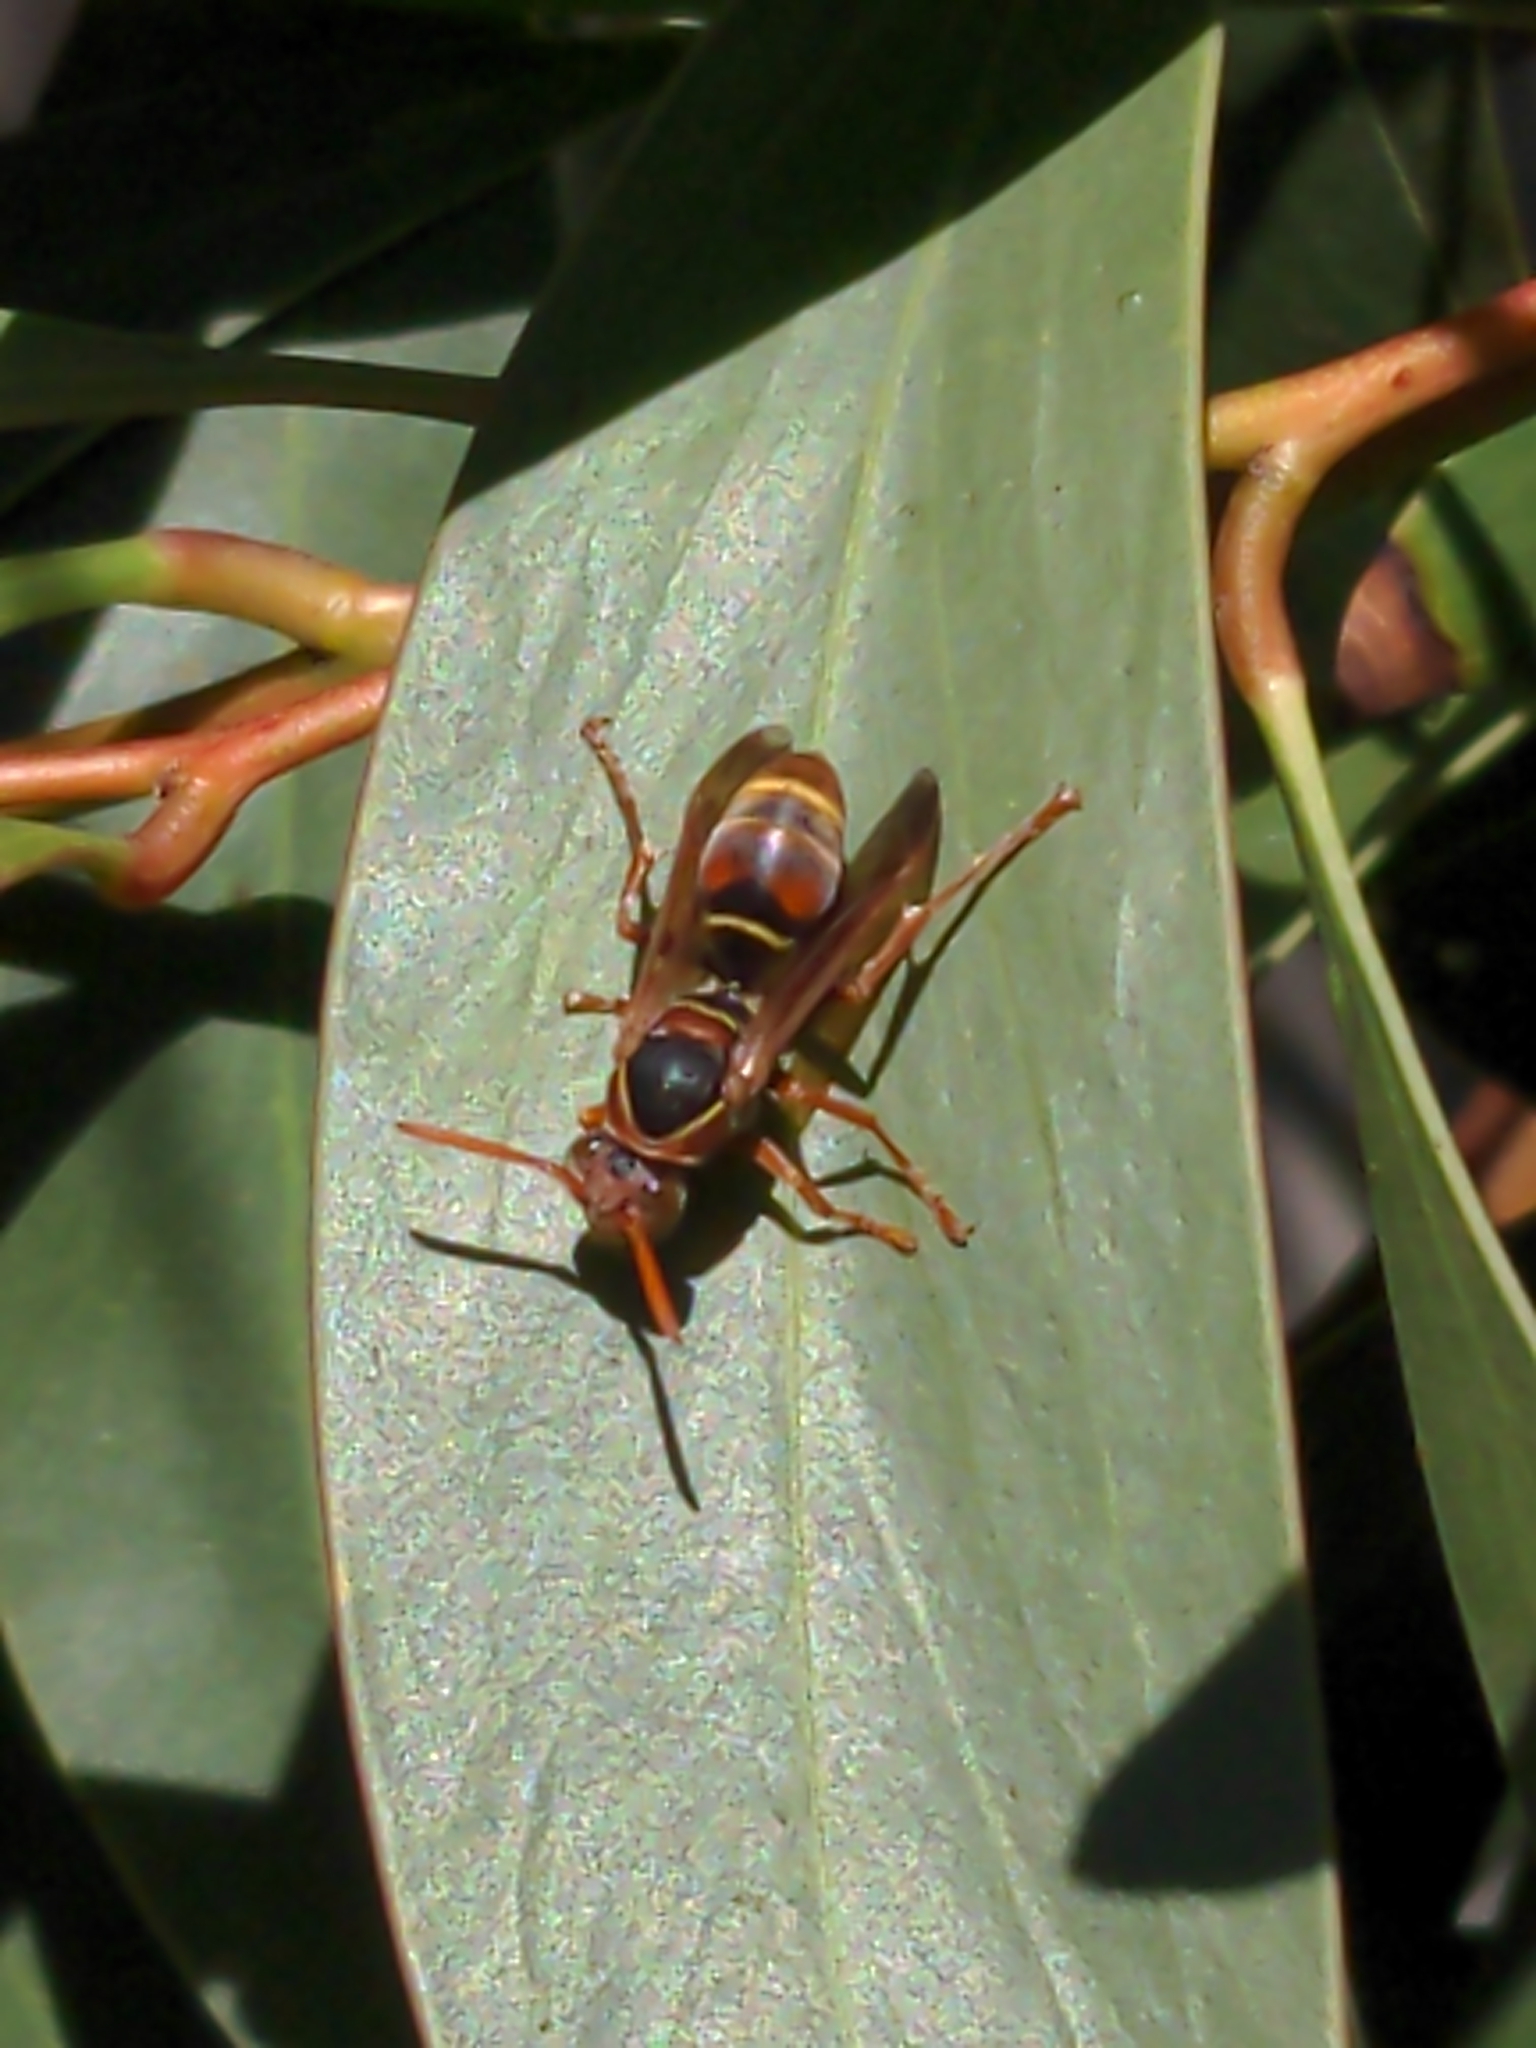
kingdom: Animalia
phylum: Arthropoda
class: Insecta
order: Hymenoptera
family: Eumenidae
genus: Polistes
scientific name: Polistes humilis
